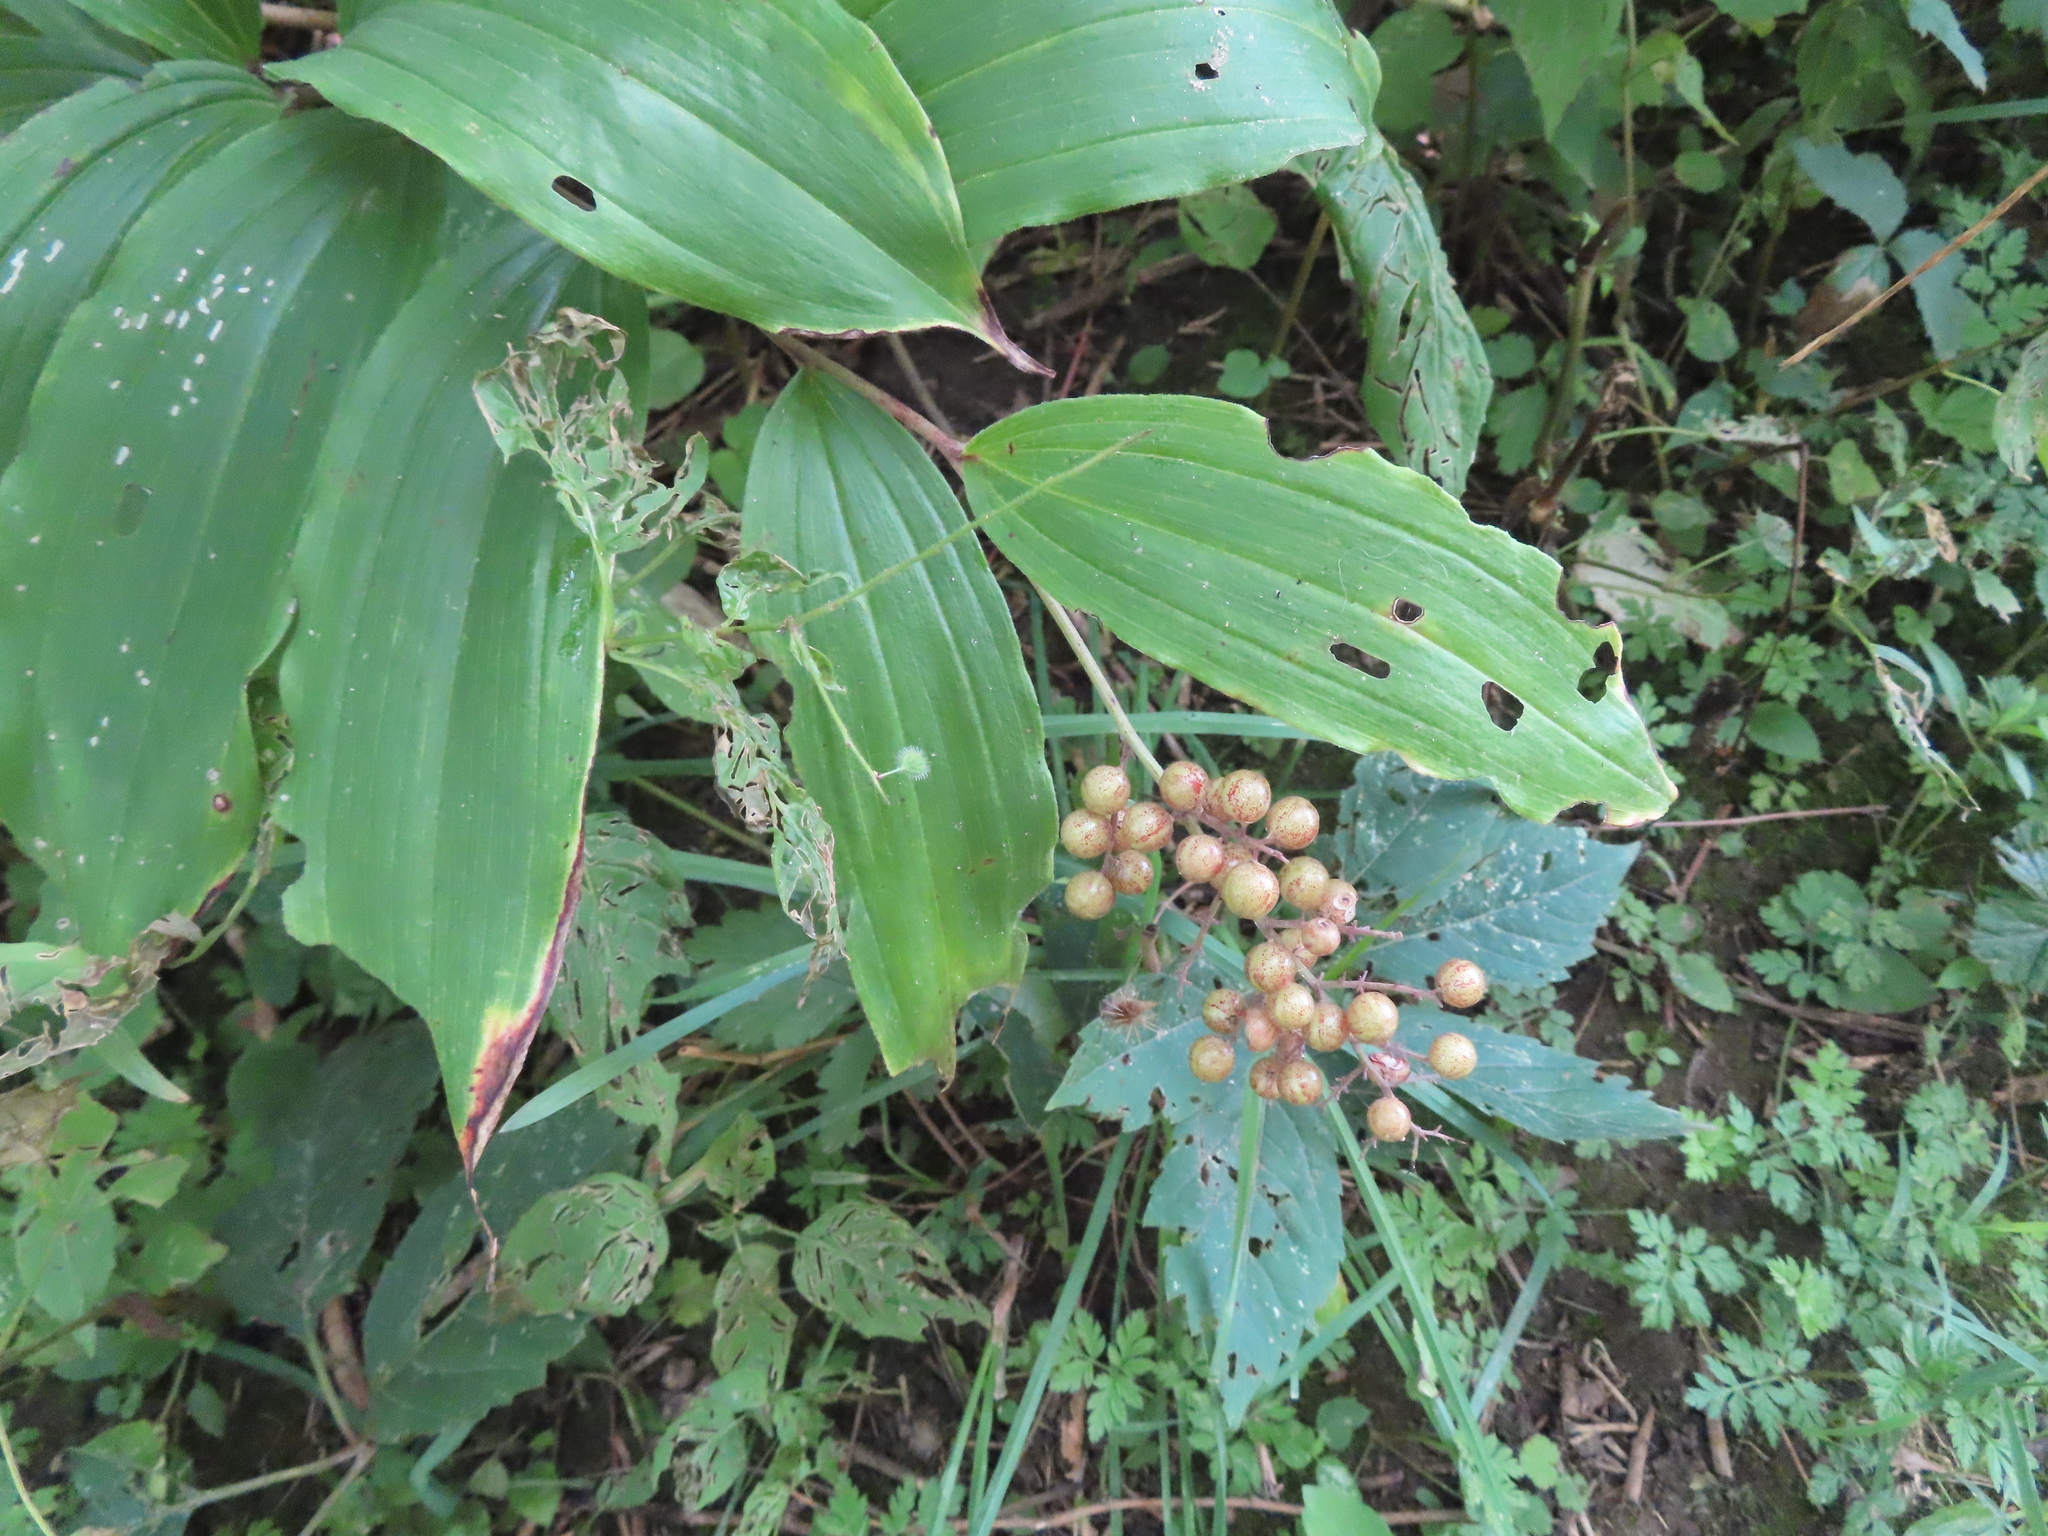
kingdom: Plantae
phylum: Tracheophyta
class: Liliopsida
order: Asparagales
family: Asparagaceae
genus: Maianthemum
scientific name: Maianthemum racemosum
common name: False spikenard
